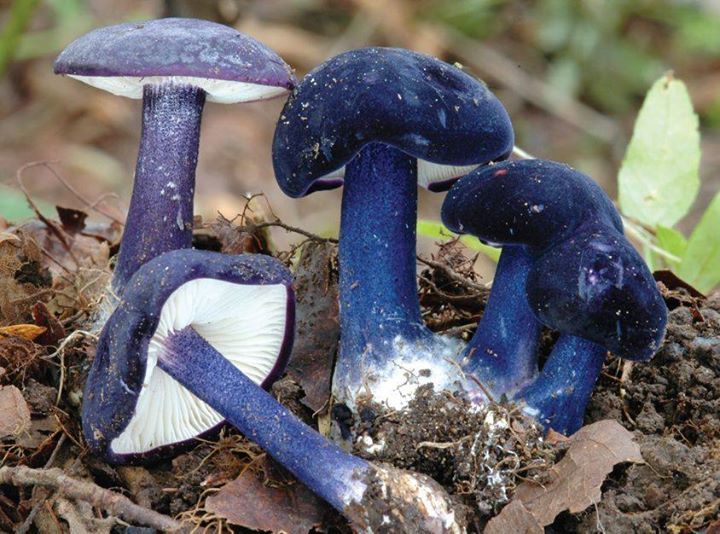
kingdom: Fungi
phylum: Basidiomycota
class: Agaricomycetes
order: Agaricales
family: Entolomataceae
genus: Entoloma
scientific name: Entoloma eugenei
